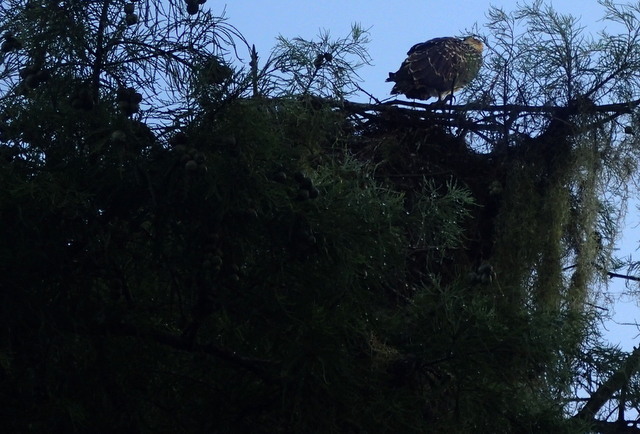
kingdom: Animalia
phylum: Chordata
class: Aves
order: Accipitriformes
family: Pandionidae
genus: Pandion
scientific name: Pandion haliaetus
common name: Osprey
